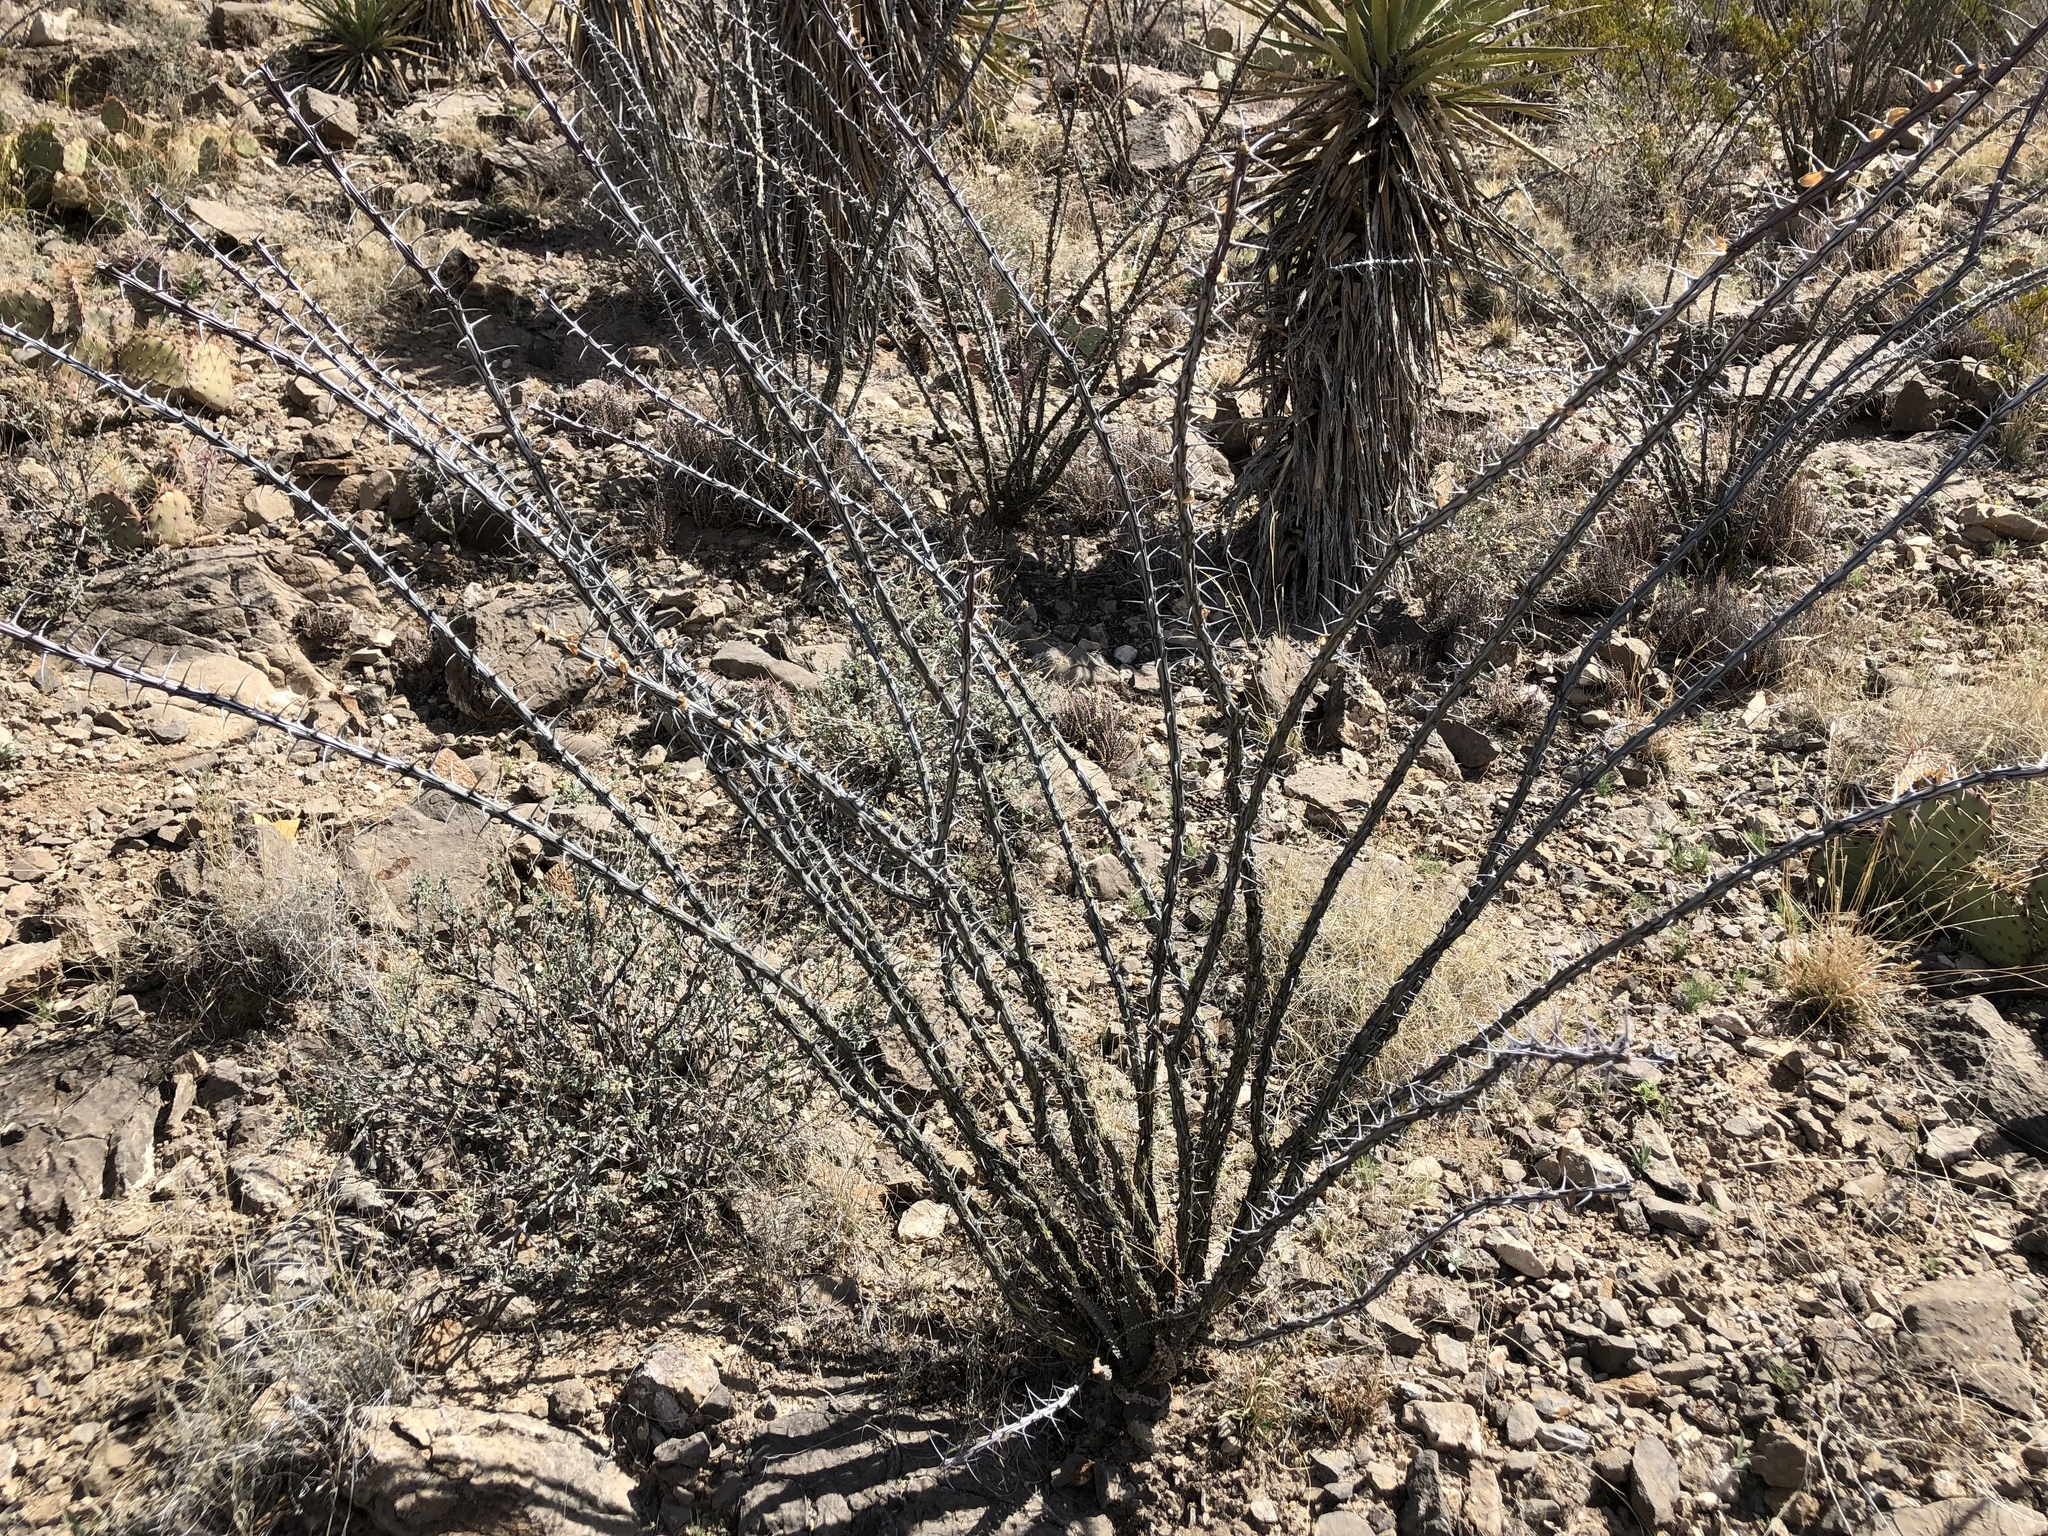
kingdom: Plantae
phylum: Tracheophyta
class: Magnoliopsida
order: Ericales
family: Fouquieriaceae
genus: Fouquieria
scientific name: Fouquieria splendens
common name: Vine-cactus
